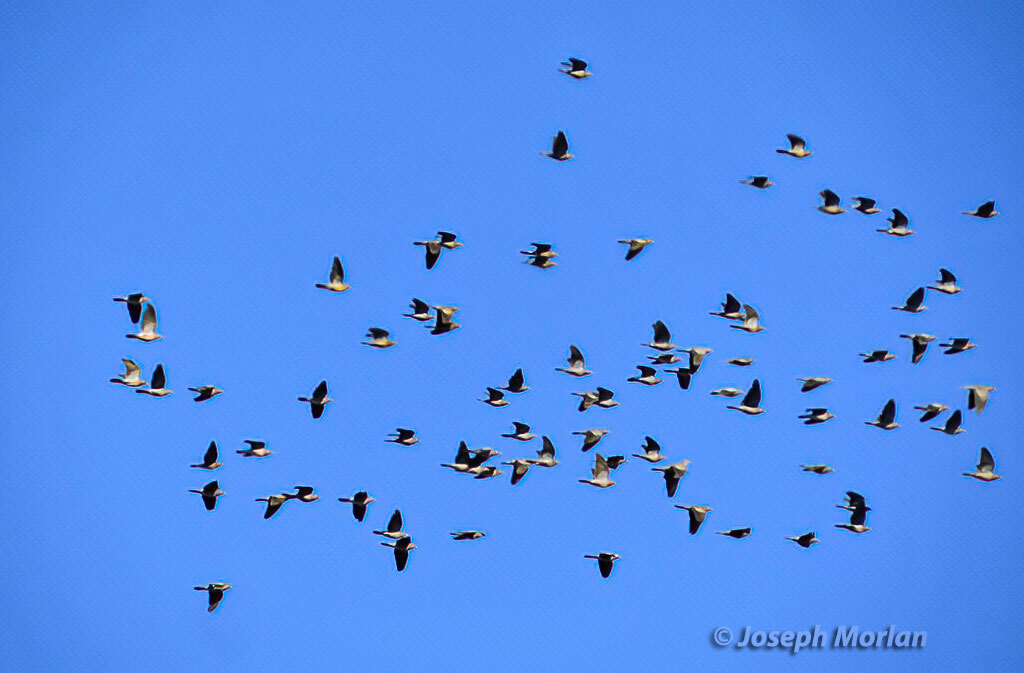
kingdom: Animalia
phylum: Chordata
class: Aves
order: Columbiformes
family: Columbidae
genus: Patagioenas
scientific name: Patagioenas fasciata
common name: Band-tailed pigeon
